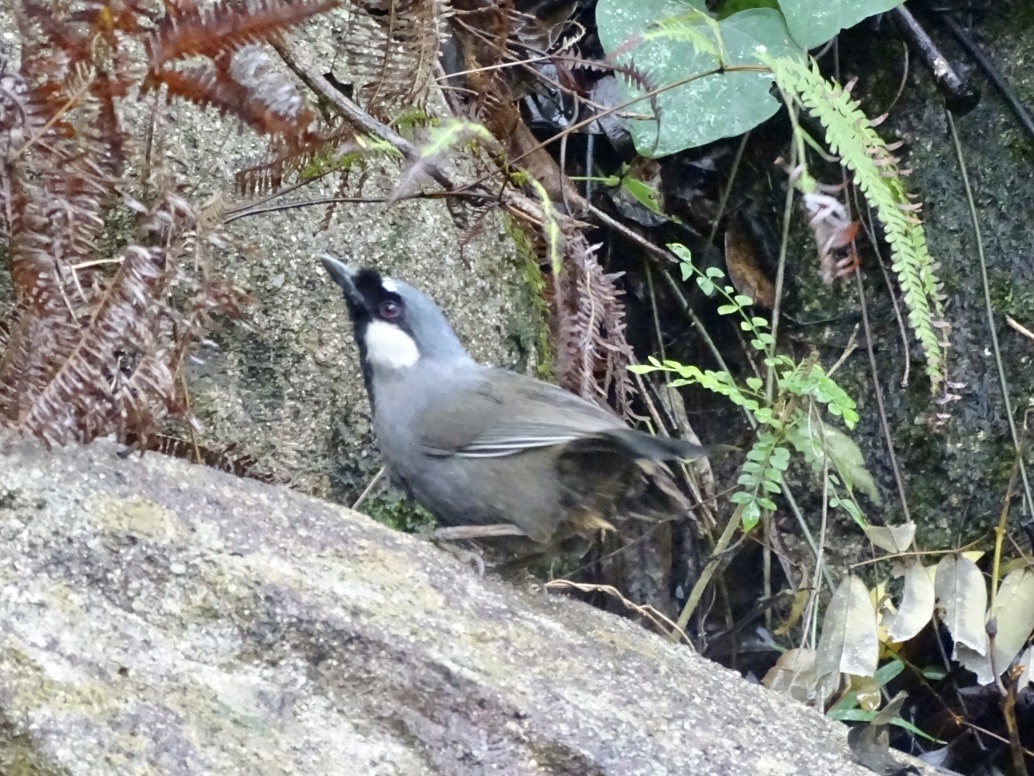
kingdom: Animalia
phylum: Chordata
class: Aves
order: Passeriformes
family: Leiothrichidae
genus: Garrulax
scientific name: Garrulax chinensis
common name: Black-throated laughingthrush
